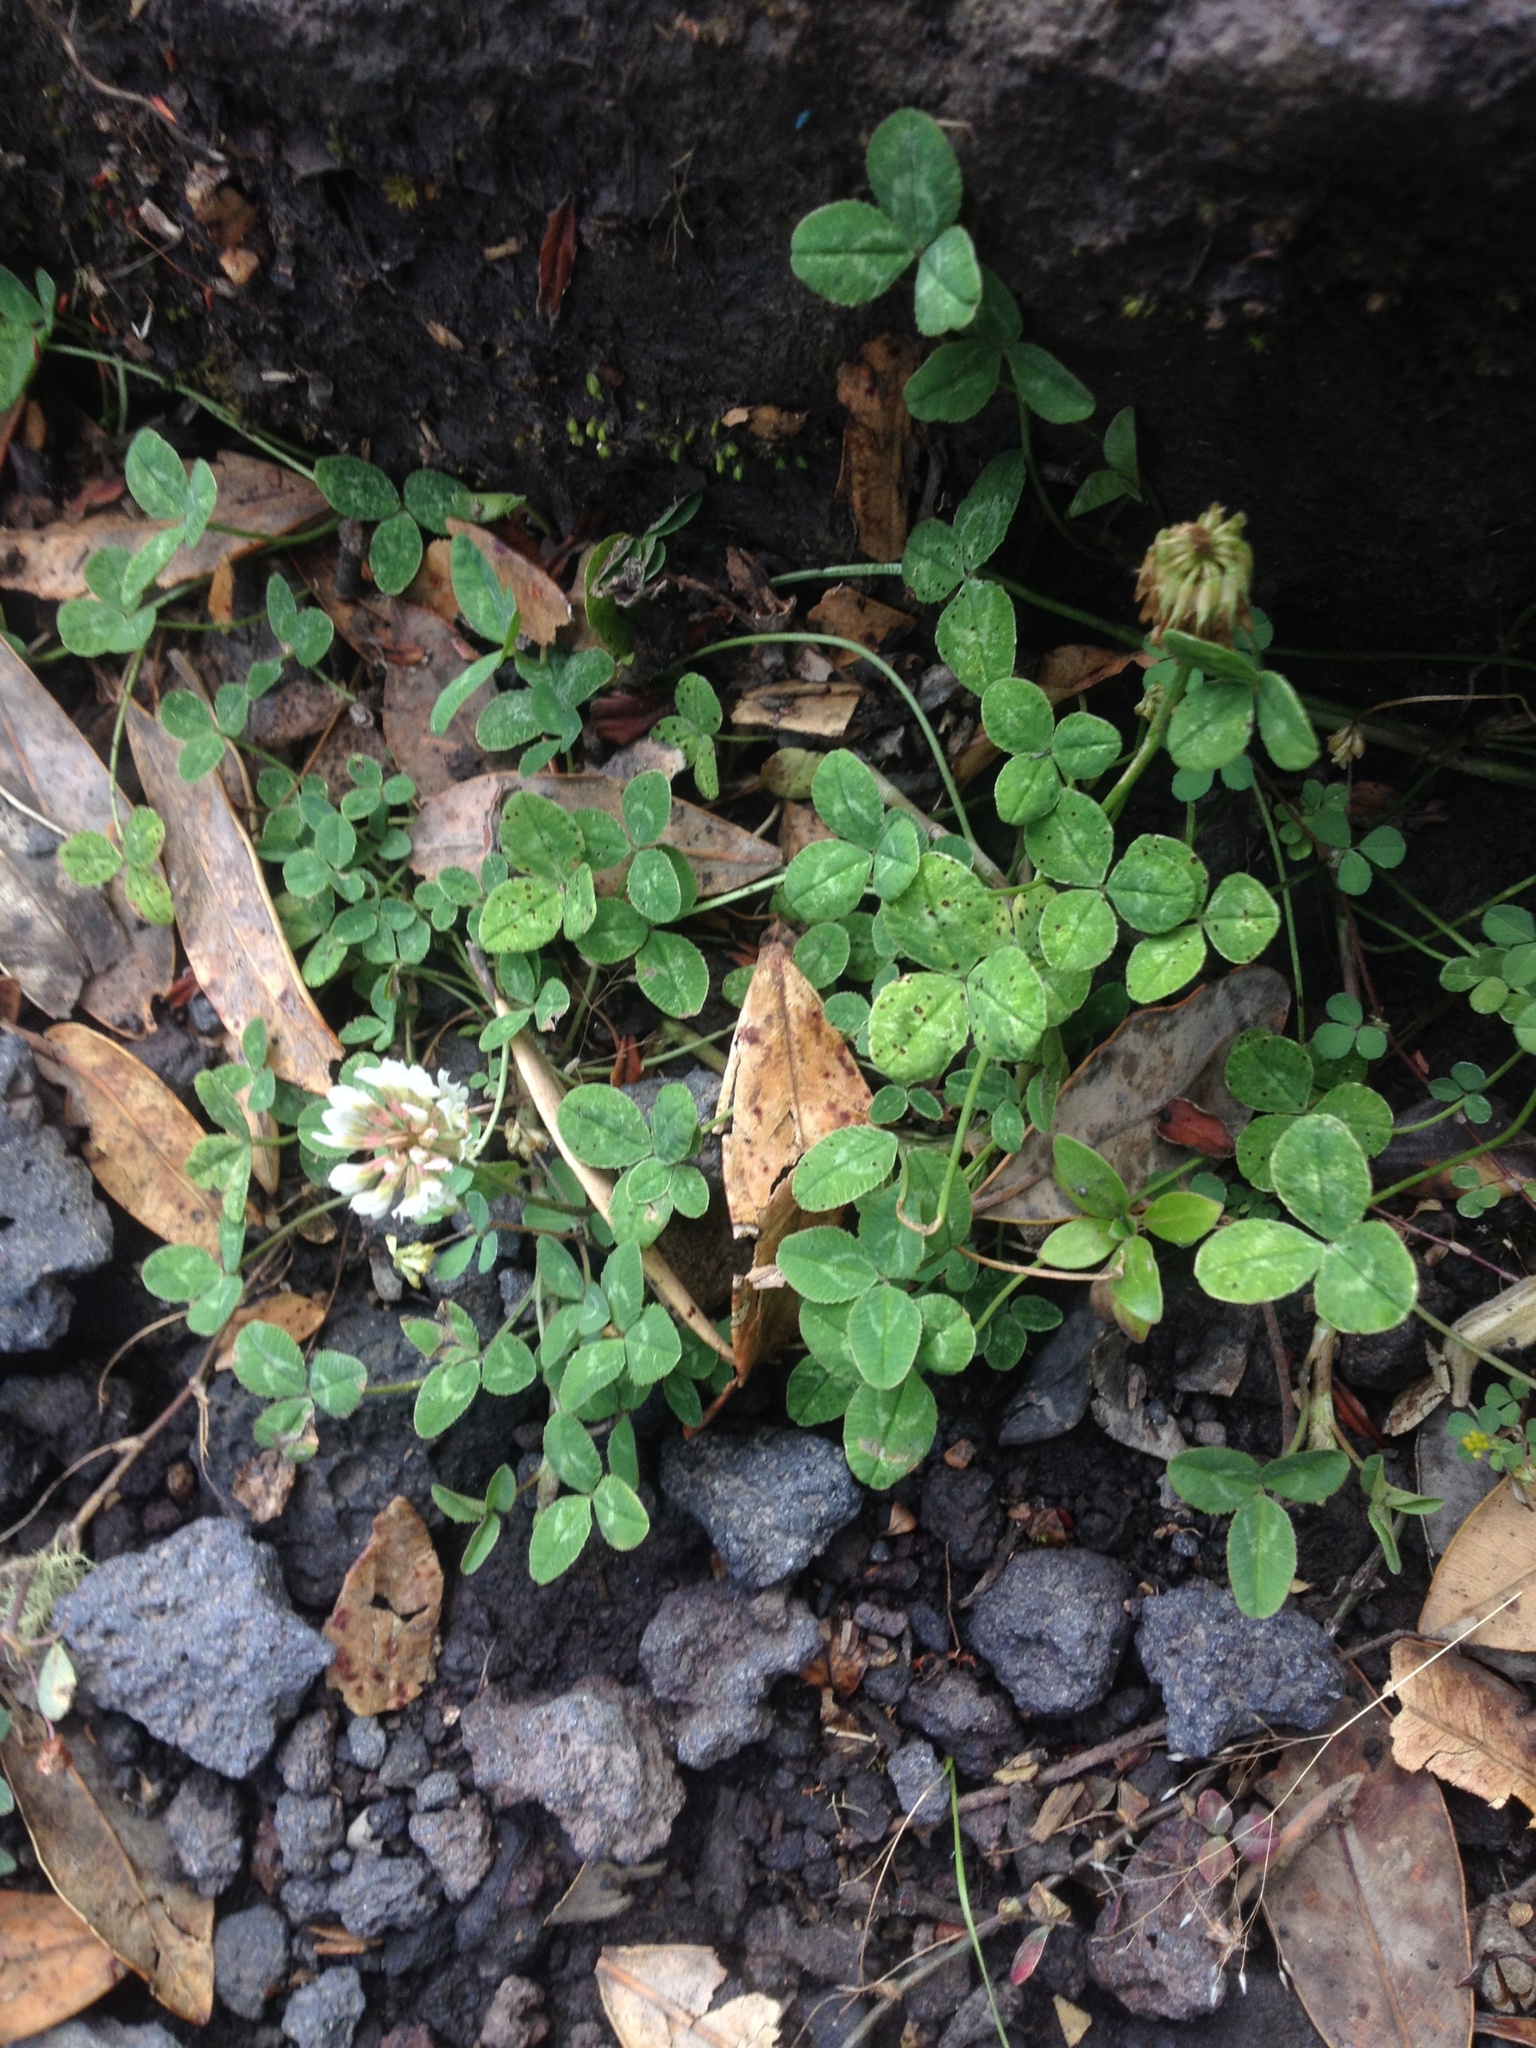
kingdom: Plantae
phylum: Tracheophyta
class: Magnoliopsida
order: Fabales
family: Fabaceae
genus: Trifolium
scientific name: Trifolium repens
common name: White clover
